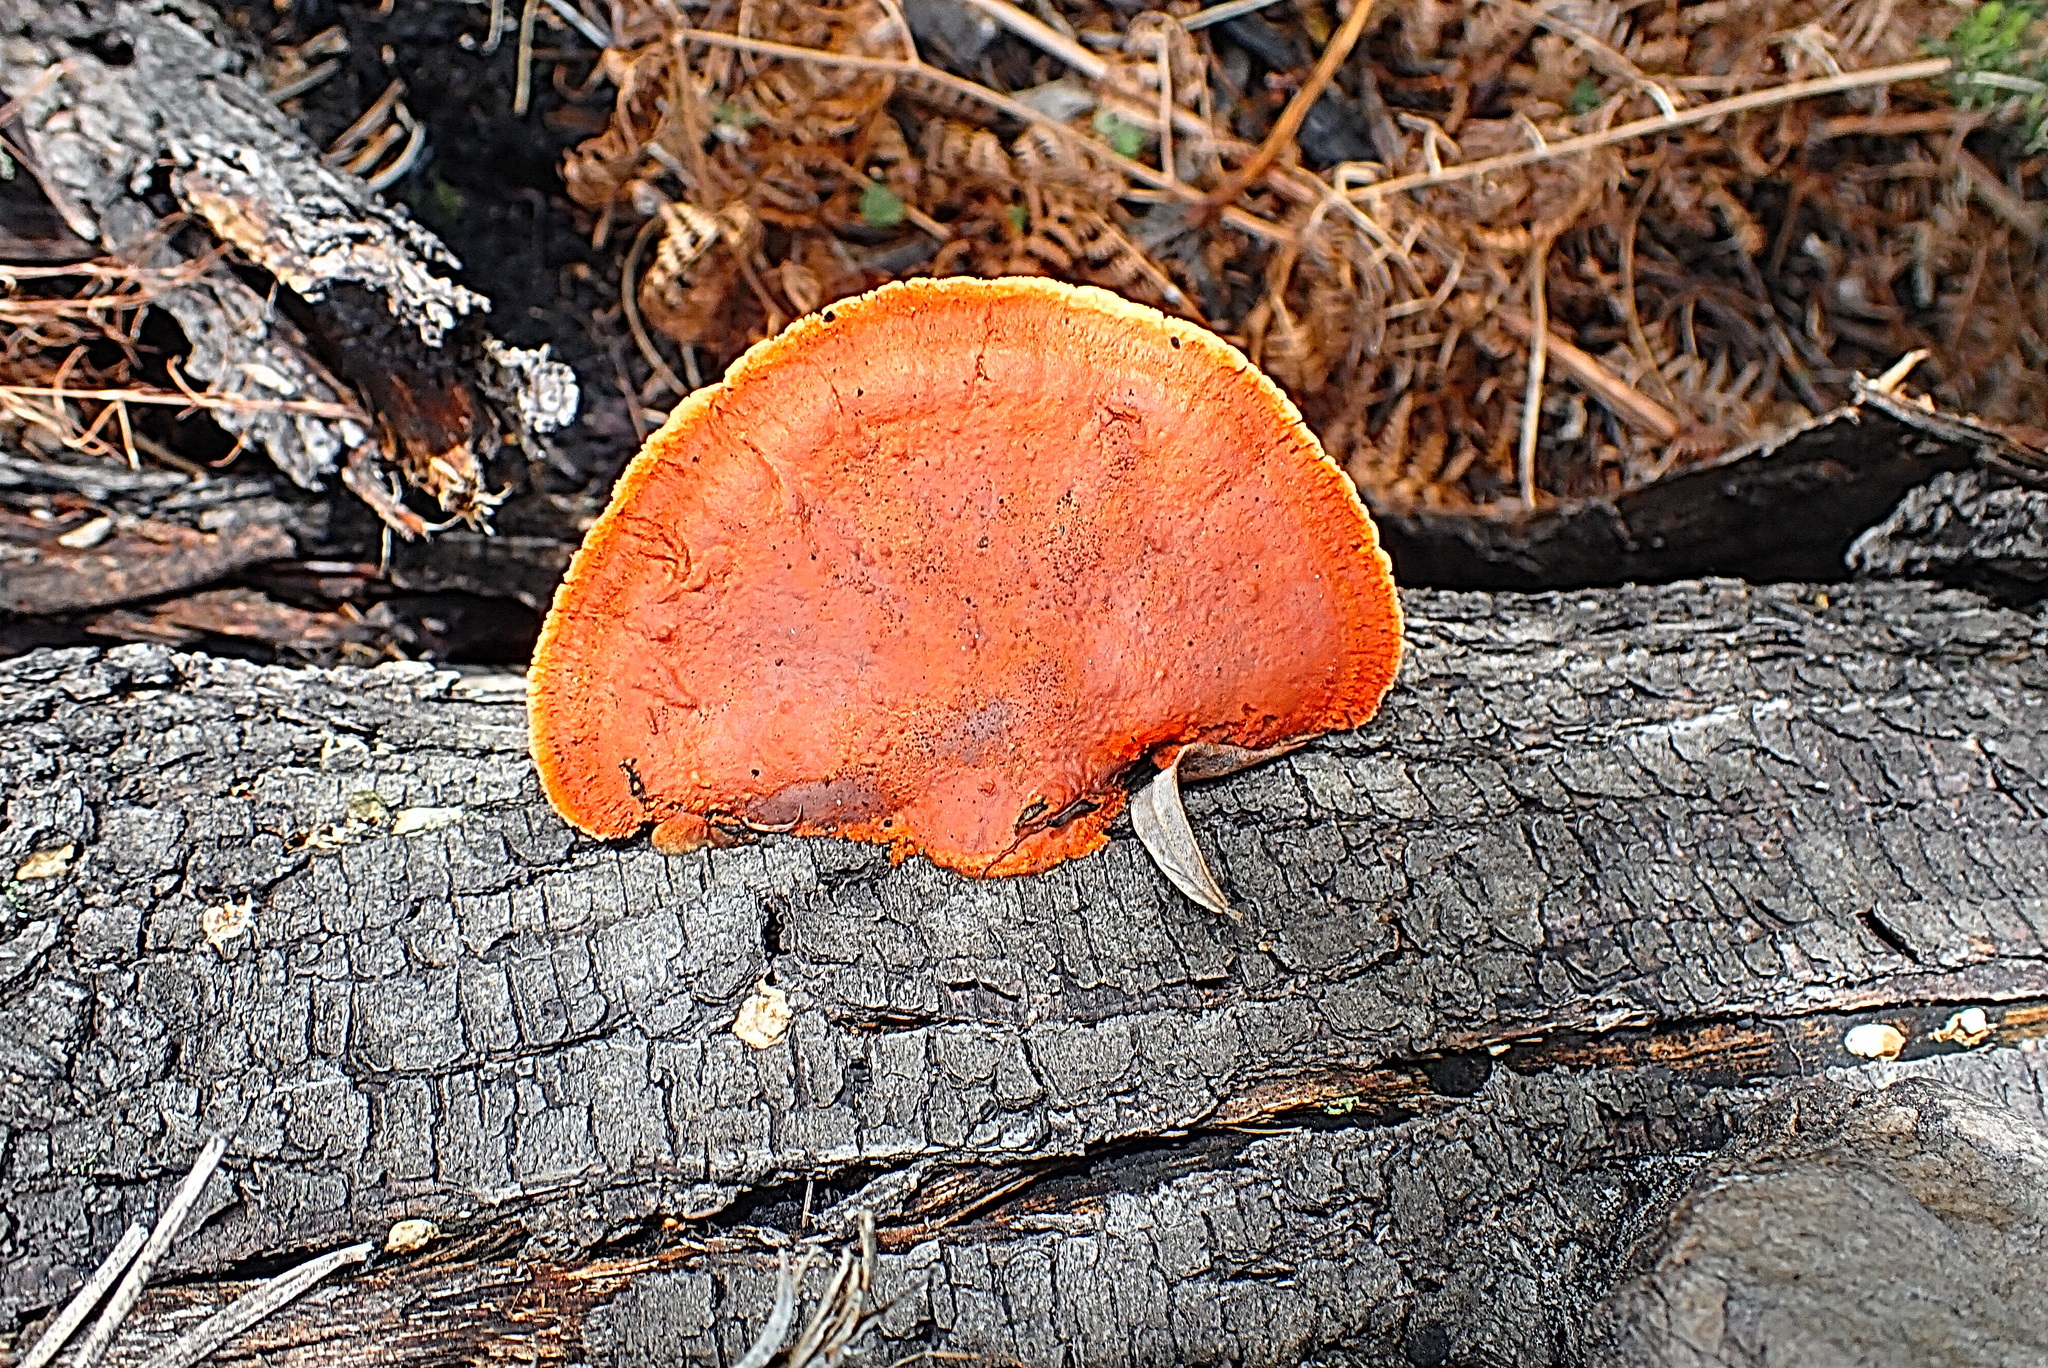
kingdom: Fungi
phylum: Basidiomycota
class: Agaricomycetes
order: Polyporales
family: Polyporaceae
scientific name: Polyporaceae
